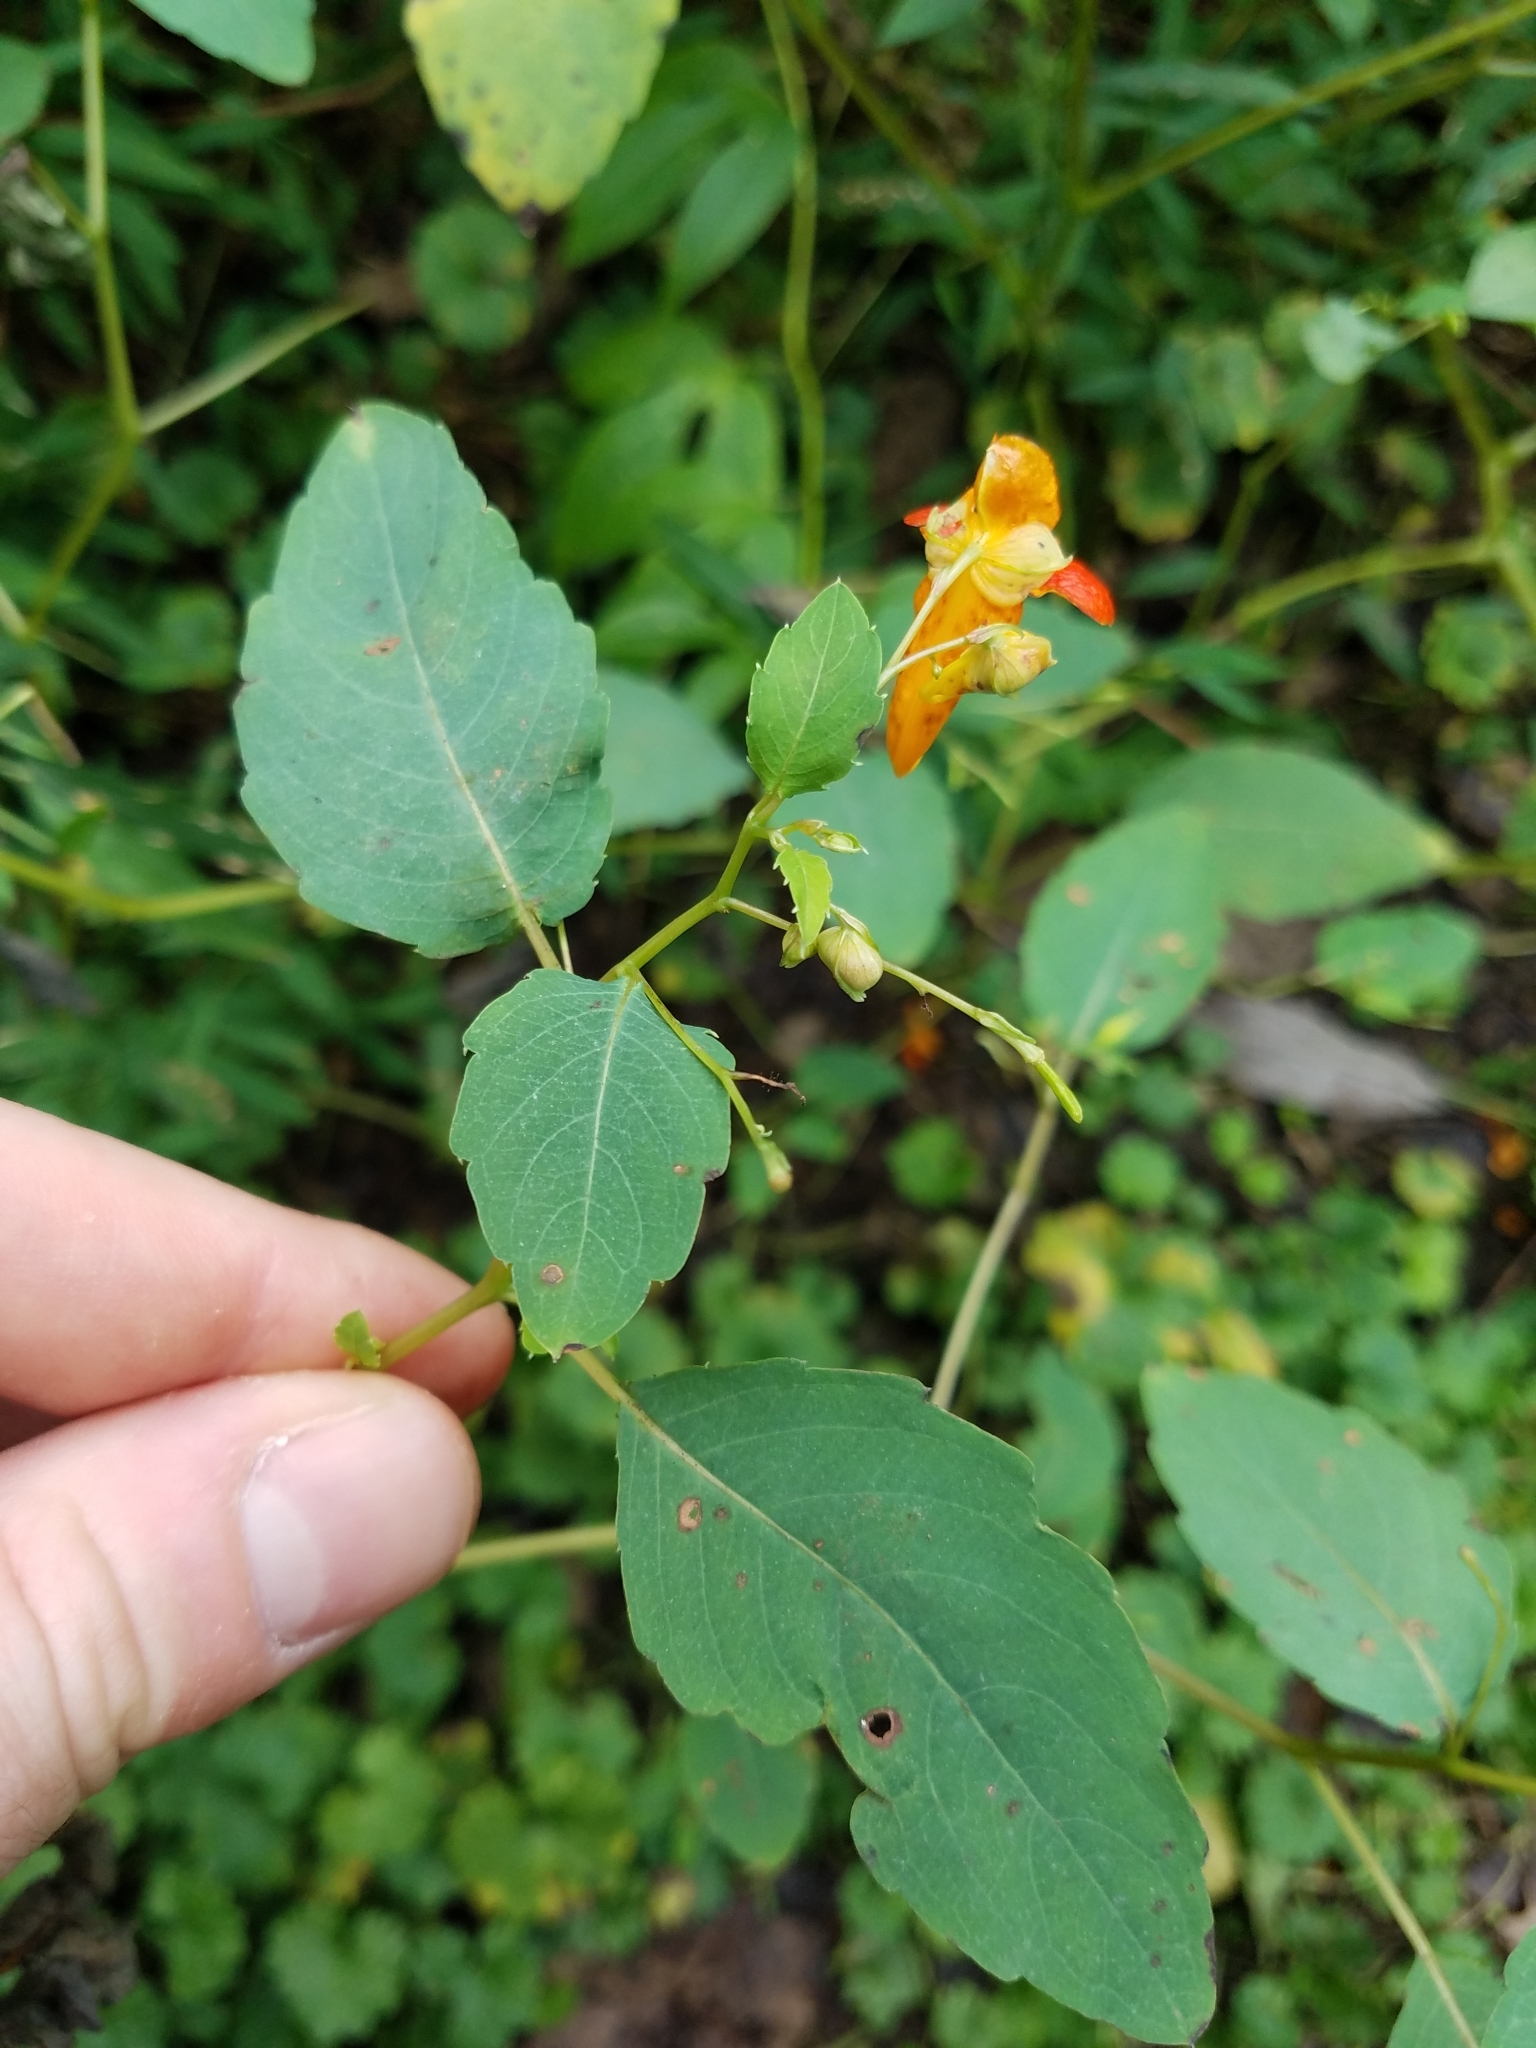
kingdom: Plantae
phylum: Tracheophyta
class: Magnoliopsida
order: Ericales
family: Balsaminaceae
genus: Impatiens
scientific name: Impatiens capensis
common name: Orange balsam
